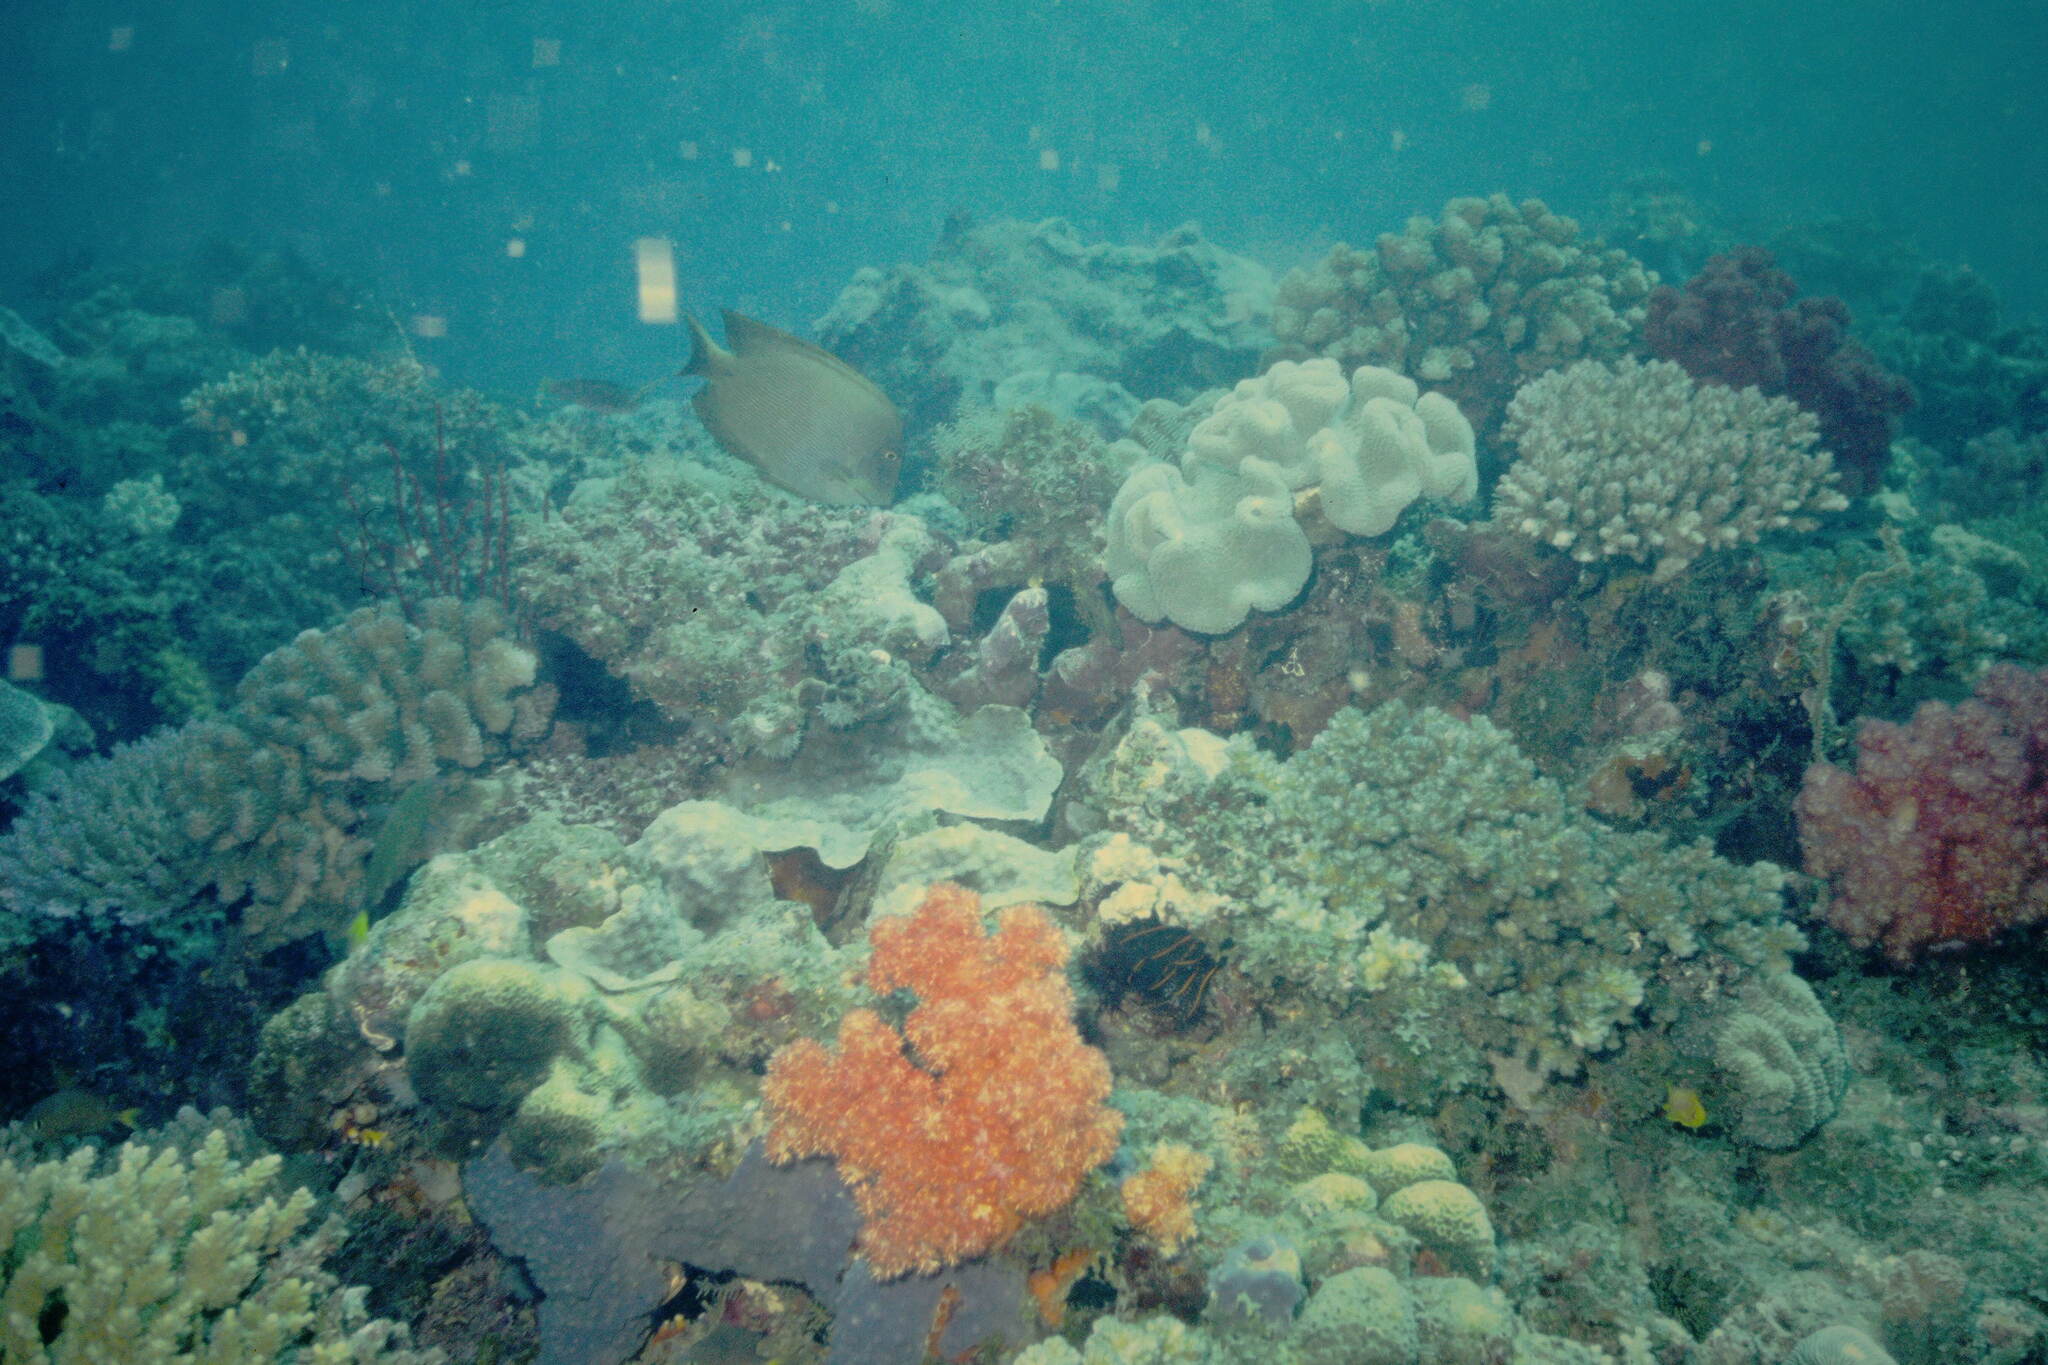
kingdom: Animalia
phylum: Chordata
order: Perciformes
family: Acanthuridae
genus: Ctenochaetus
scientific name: Ctenochaetus striatus
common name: Bristle-toothed surgeonfish
